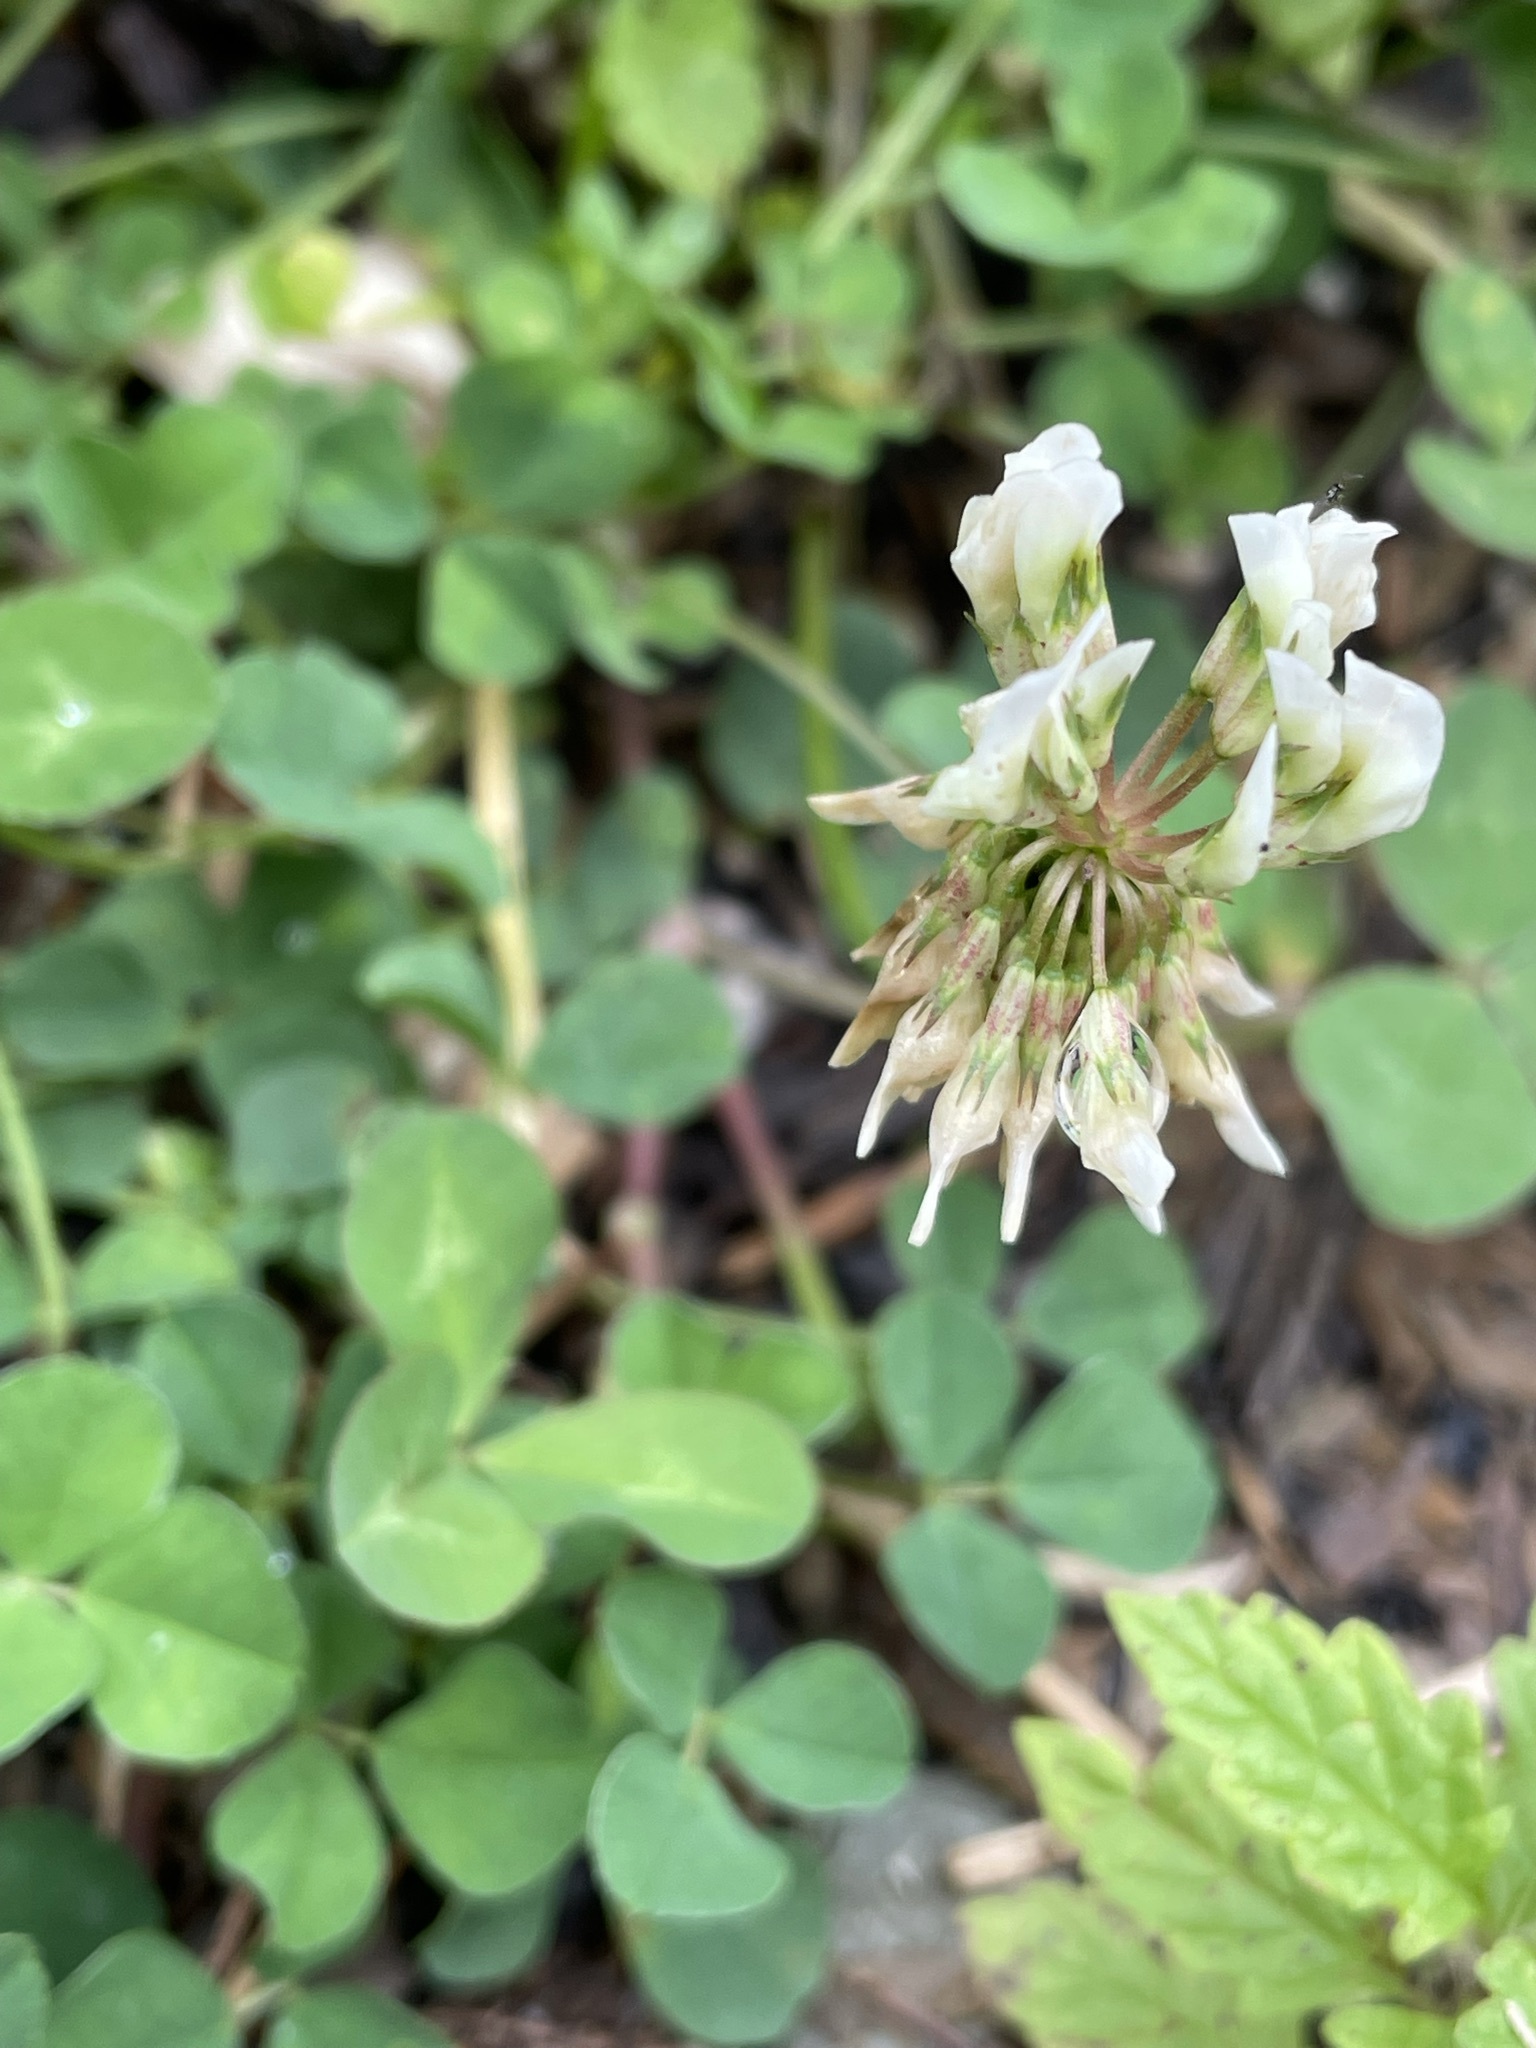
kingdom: Plantae
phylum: Tracheophyta
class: Magnoliopsida
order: Fabales
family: Fabaceae
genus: Trifolium
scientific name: Trifolium repens
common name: White clover
